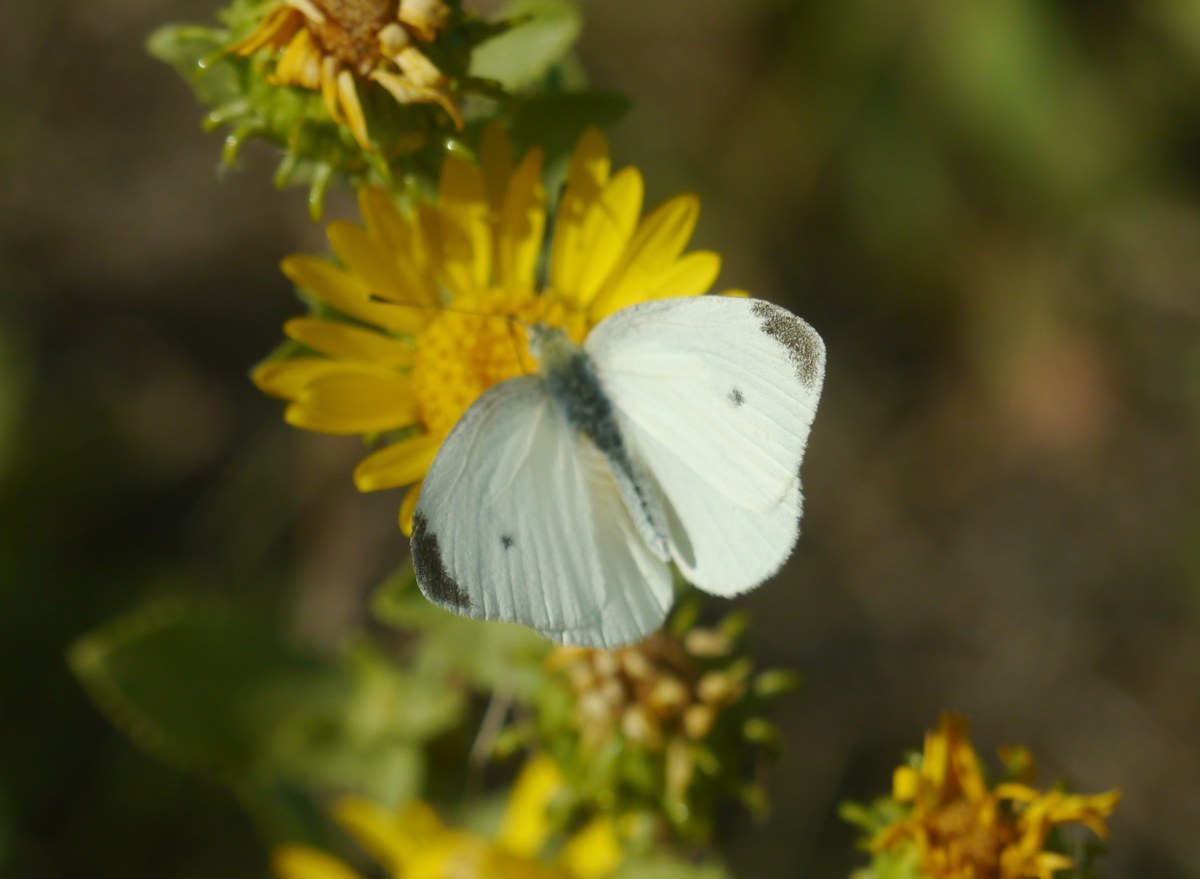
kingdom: Animalia
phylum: Arthropoda
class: Insecta
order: Lepidoptera
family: Pieridae
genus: Pieris
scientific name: Pieris rapae
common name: Small white
